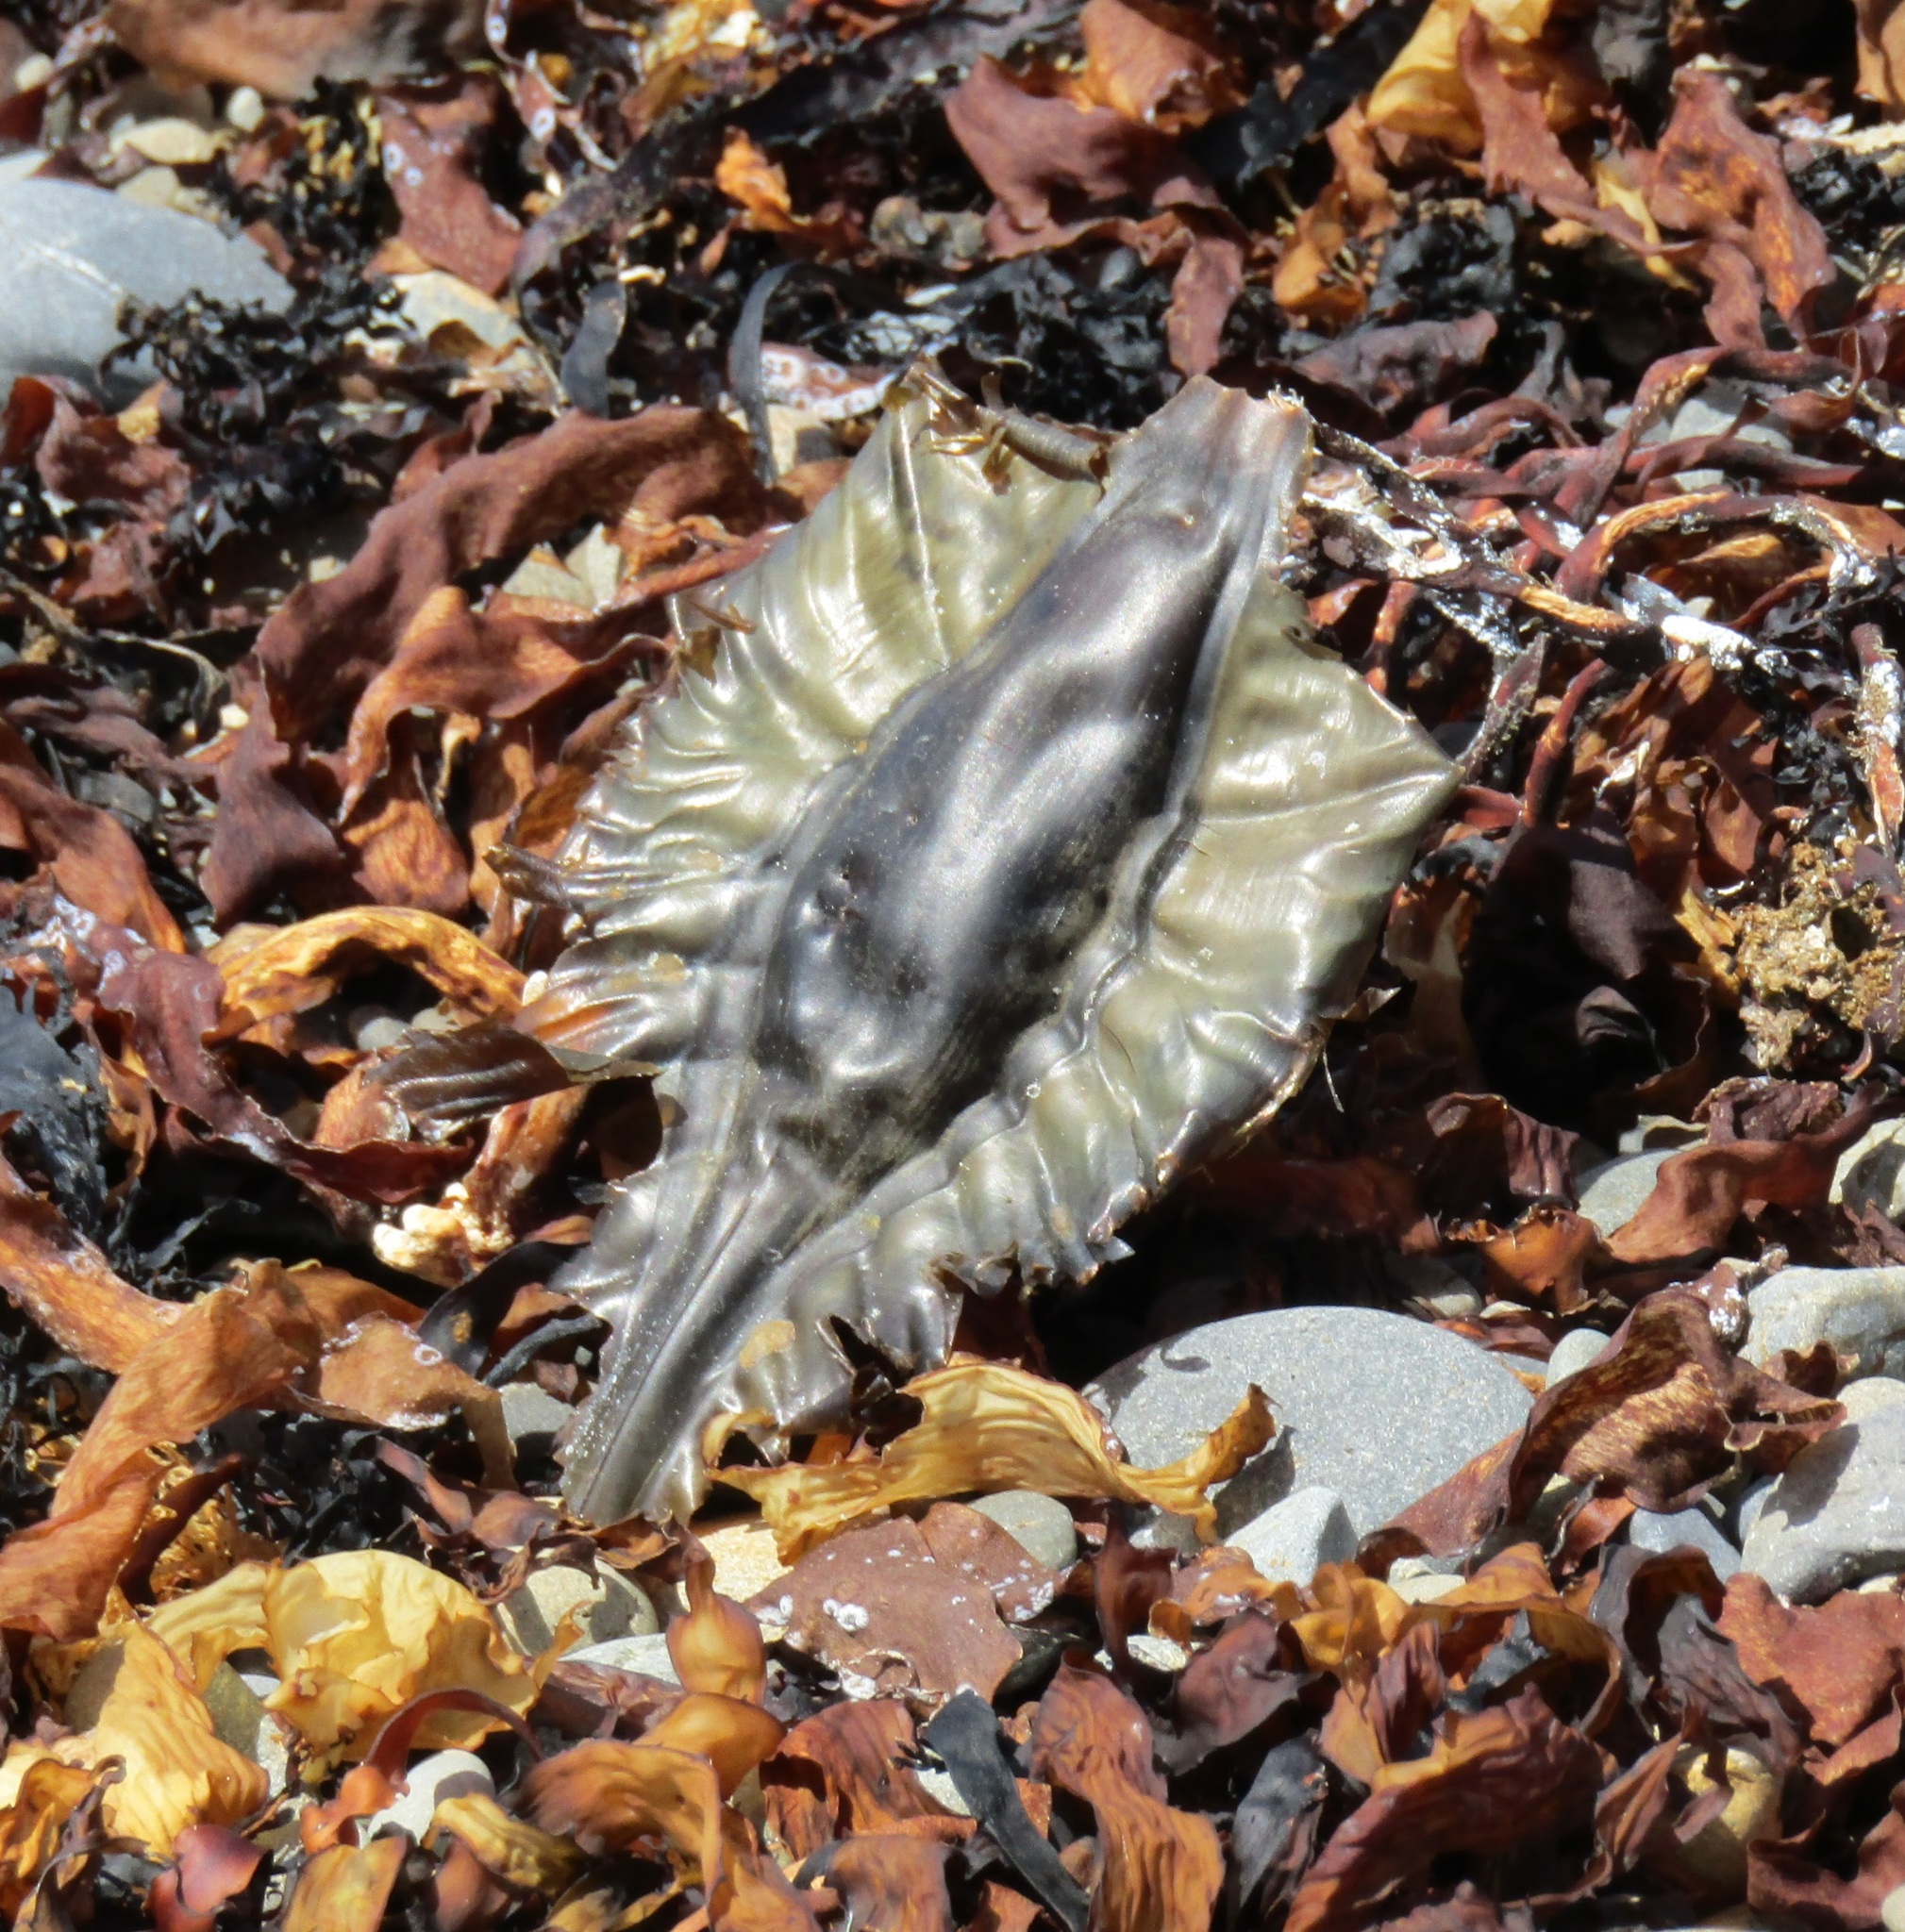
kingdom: Animalia
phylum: Chordata
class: Holocephali
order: Chimaeriformes
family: Callorhinchidae
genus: Callorhinchus
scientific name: Callorhinchus milii
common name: Elephant fish
